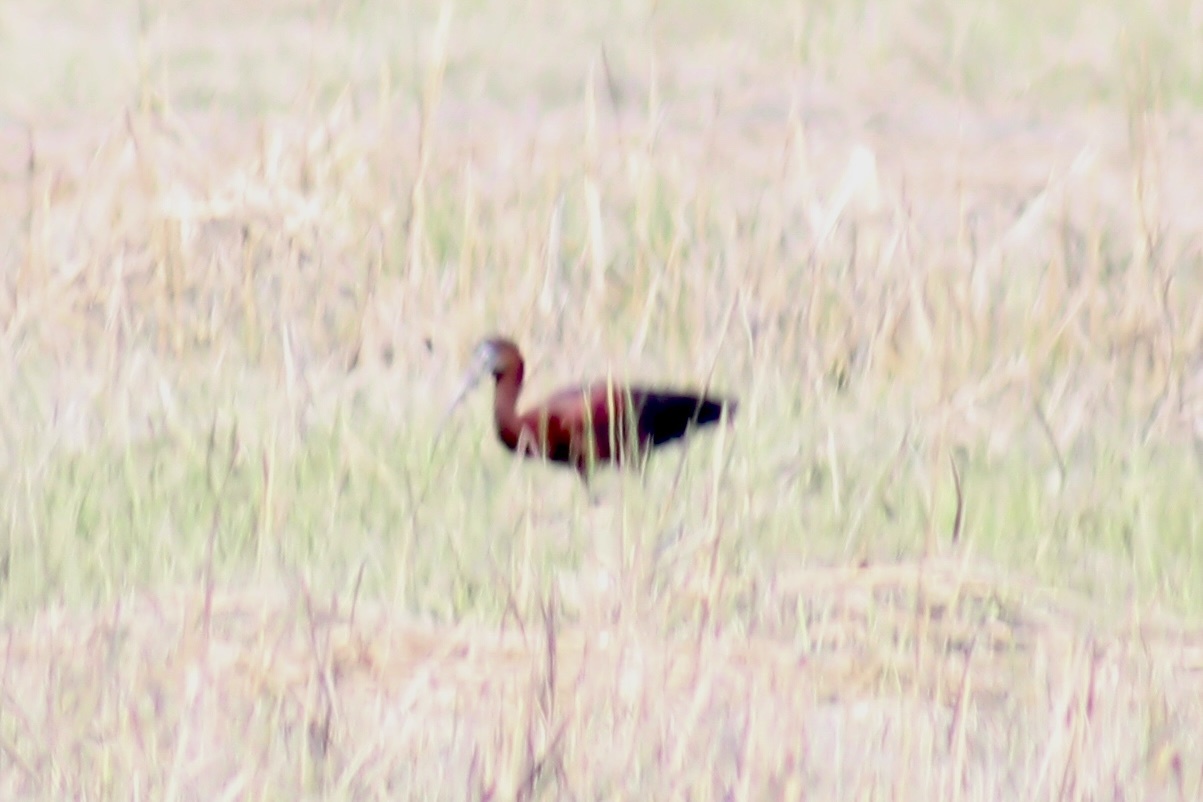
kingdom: Animalia
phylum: Chordata
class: Aves
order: Pelecaniformes
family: Threskiornithidae
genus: Plegadis
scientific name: Plegadis falcinellus
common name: Glossy ibis
